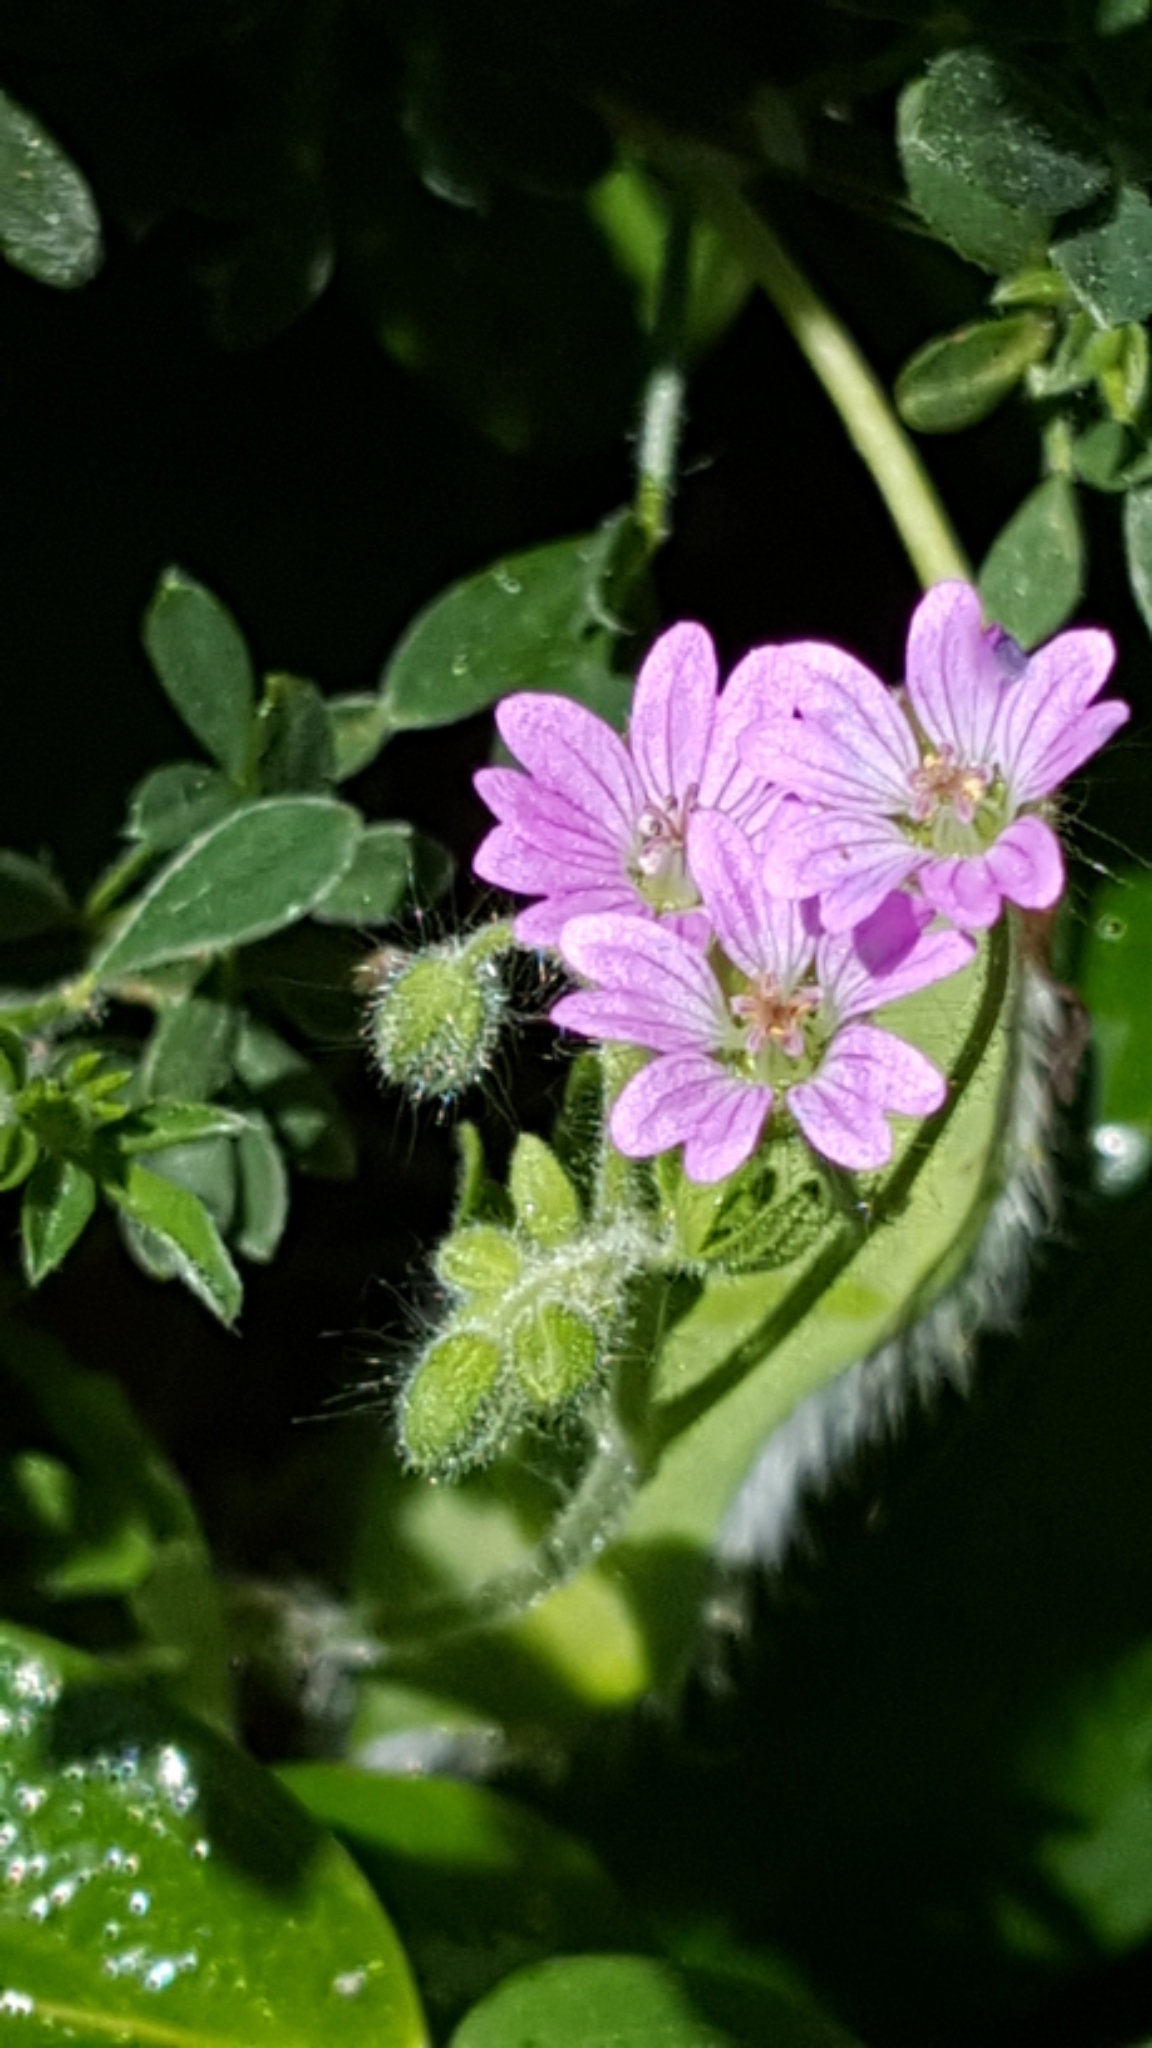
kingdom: Plantae
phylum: Tracheophyta
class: Magnoliopsida
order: Geraniales
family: Geraniaceae
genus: Geranium
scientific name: Geranium molle
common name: Dove's-foot crane's-bill
